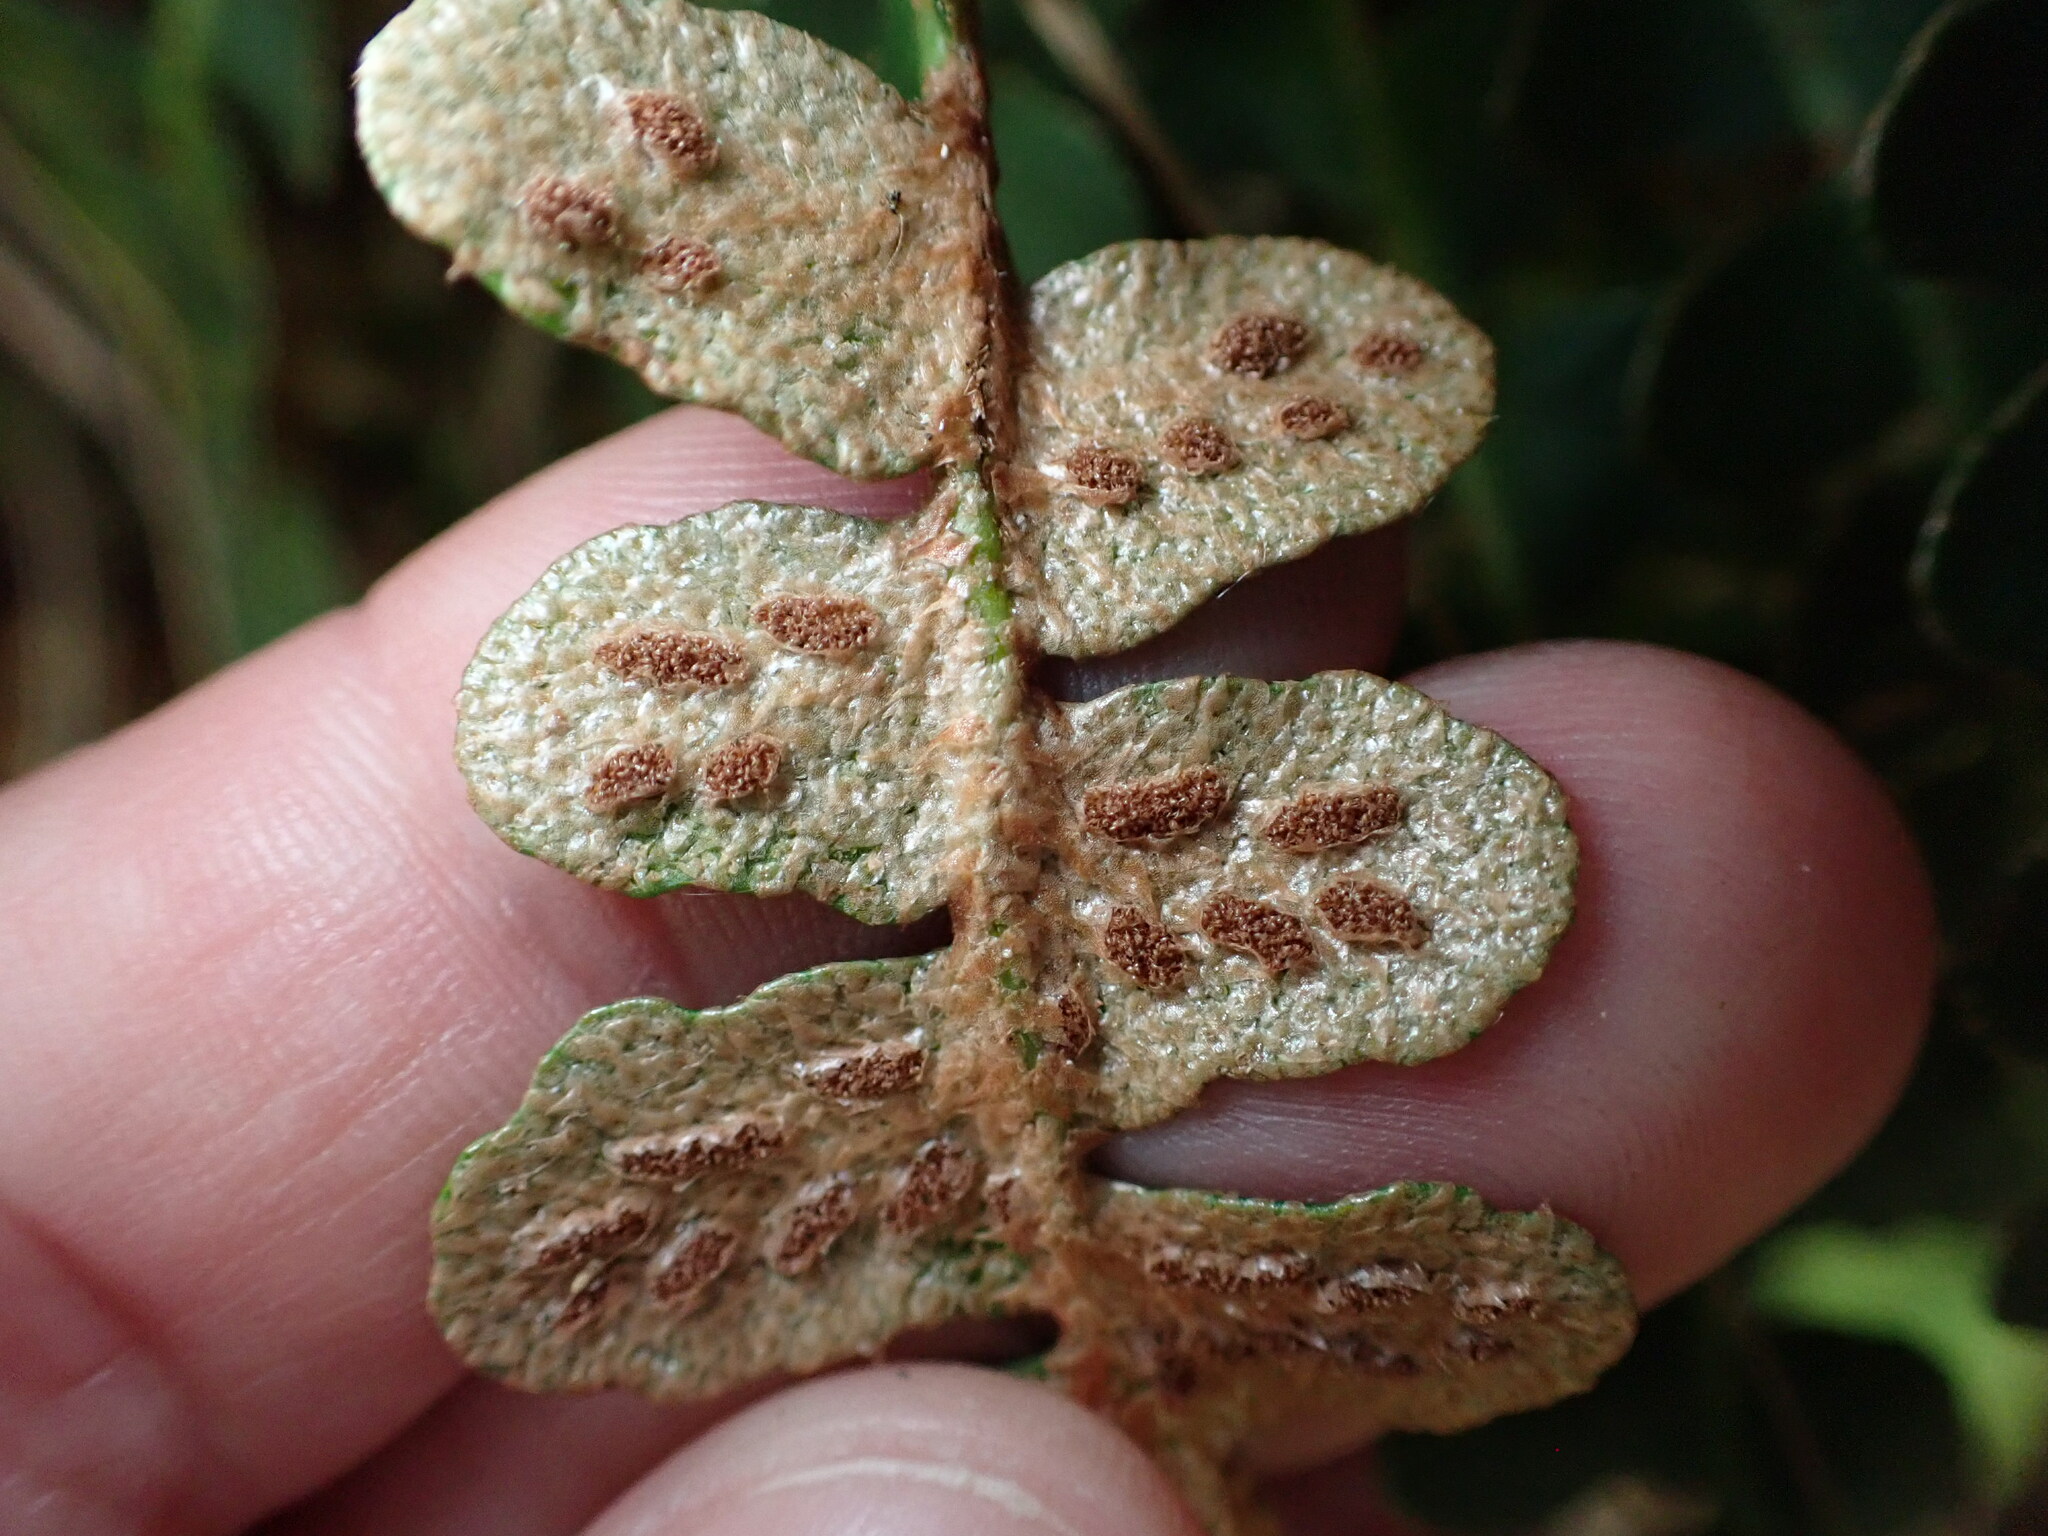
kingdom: Plantae
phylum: Tracheophyta
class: Polypodiopsida
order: Polypodiales
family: Aspleniaceae
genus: Asplenium
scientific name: Asplenium ceterach
